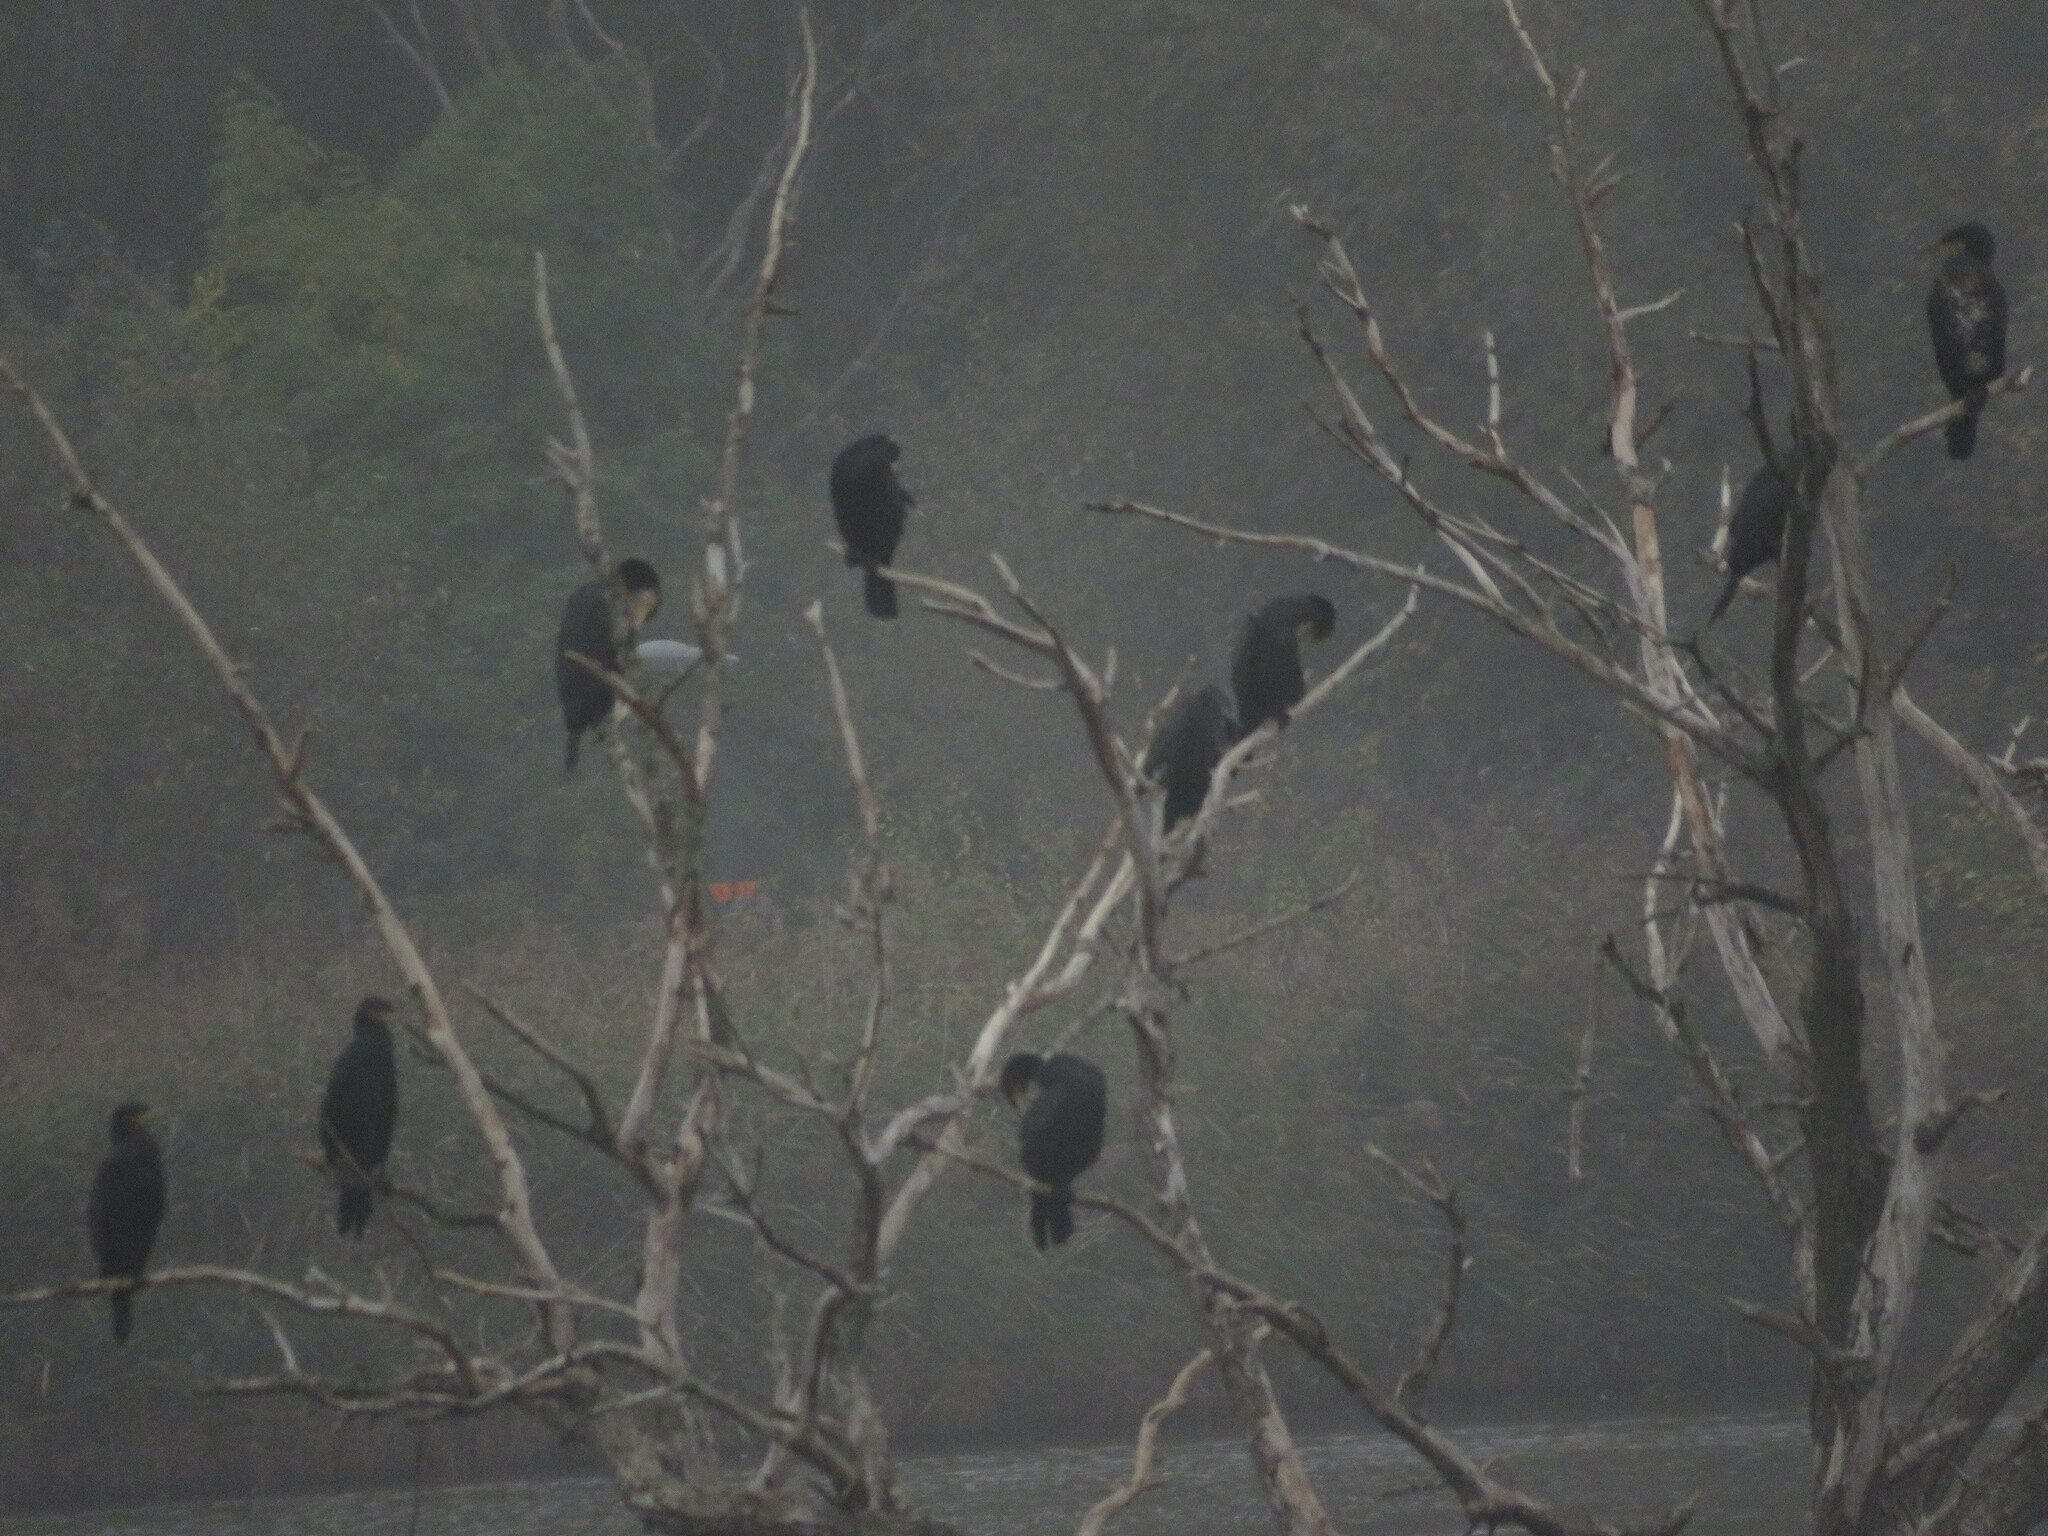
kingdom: Animalia
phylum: Chordata
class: Aves
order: Suliformes
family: Phalacrocoracidae
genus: Phalacrocorax
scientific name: Phalacrocorax carbo
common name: Great cormorant
